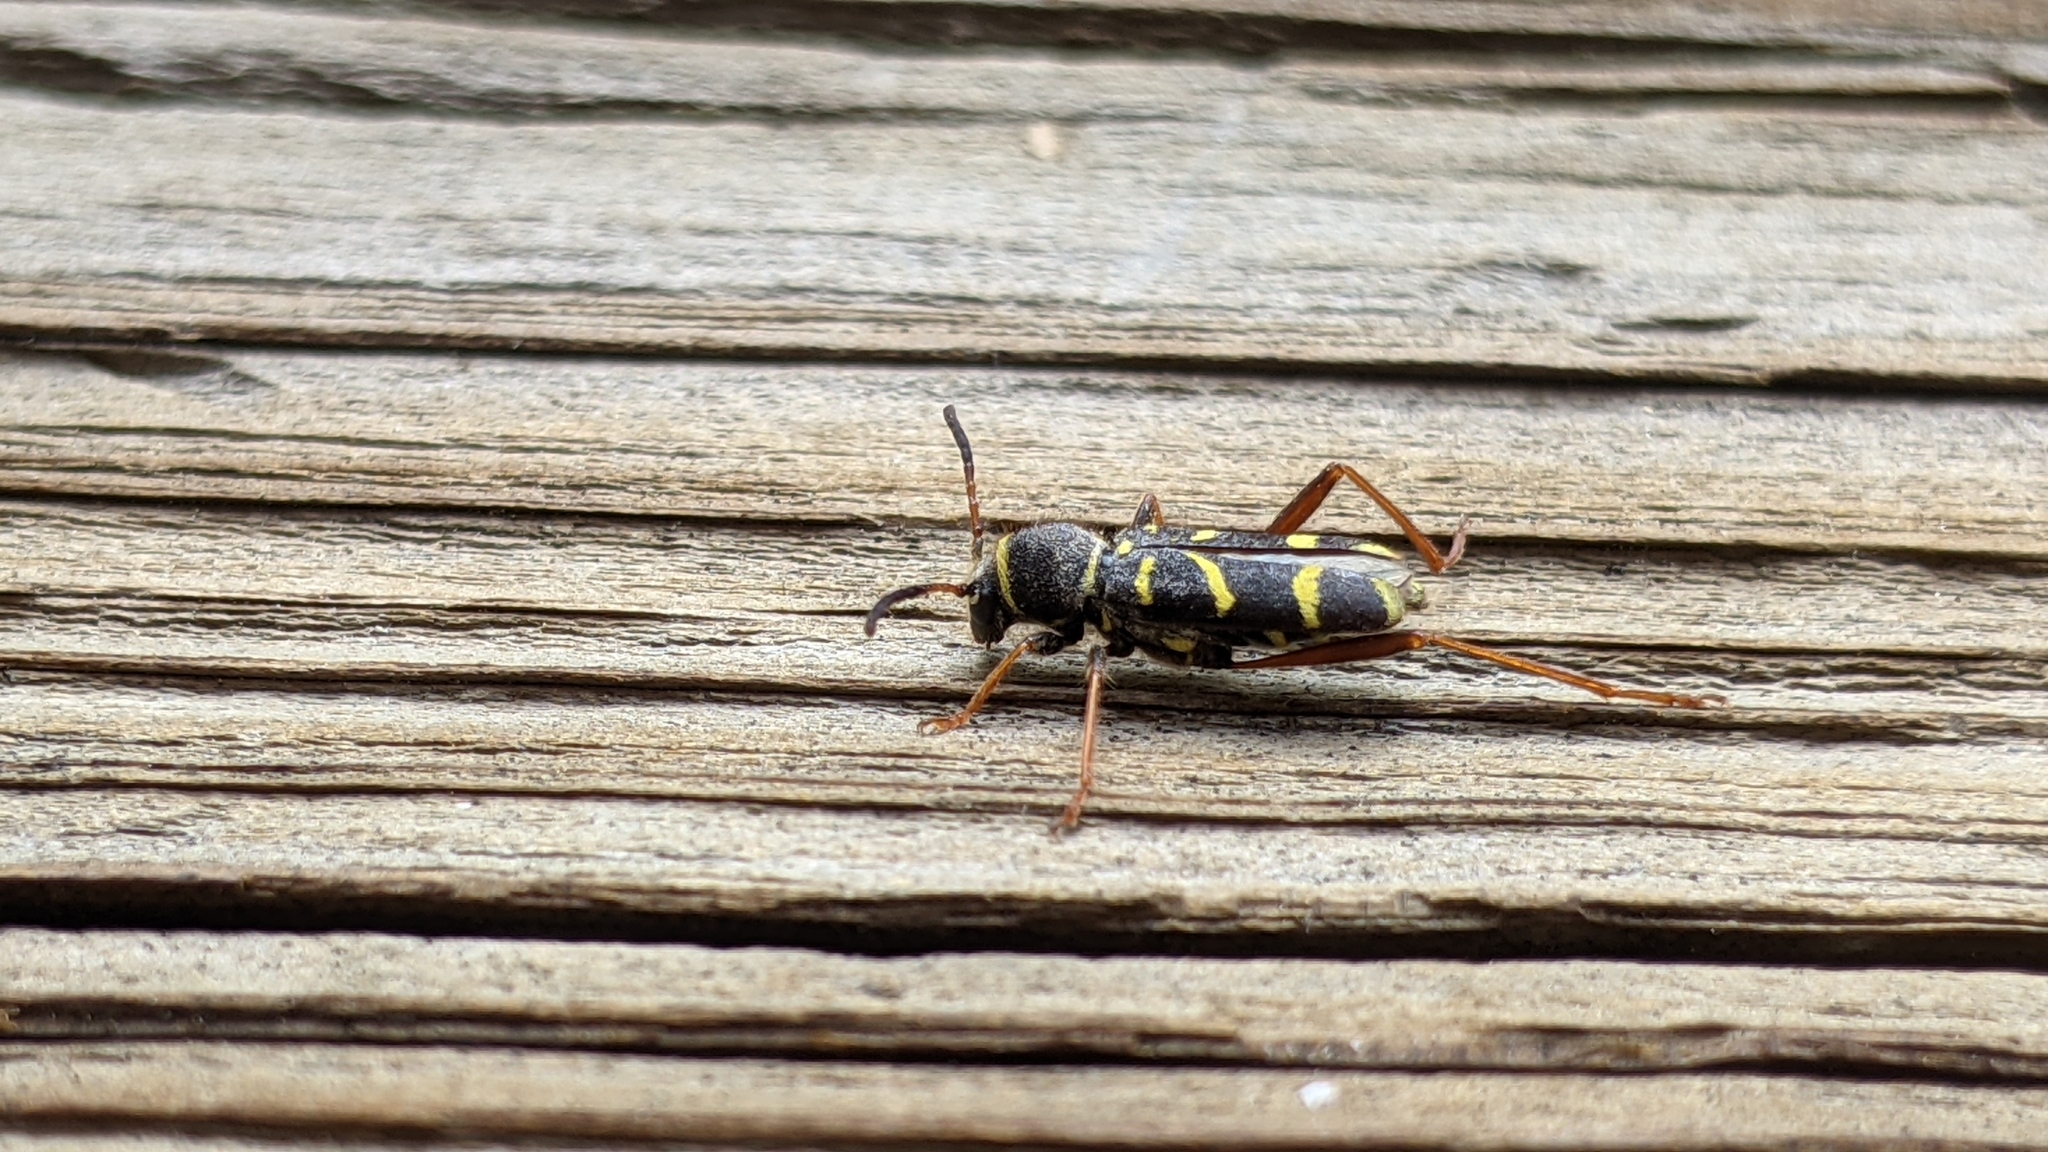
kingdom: Animalia
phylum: Arthropoda
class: Insecta
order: Coleoptera
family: Cerambycidae
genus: Clytus
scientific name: Clytus arietis
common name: Wasp beetle
